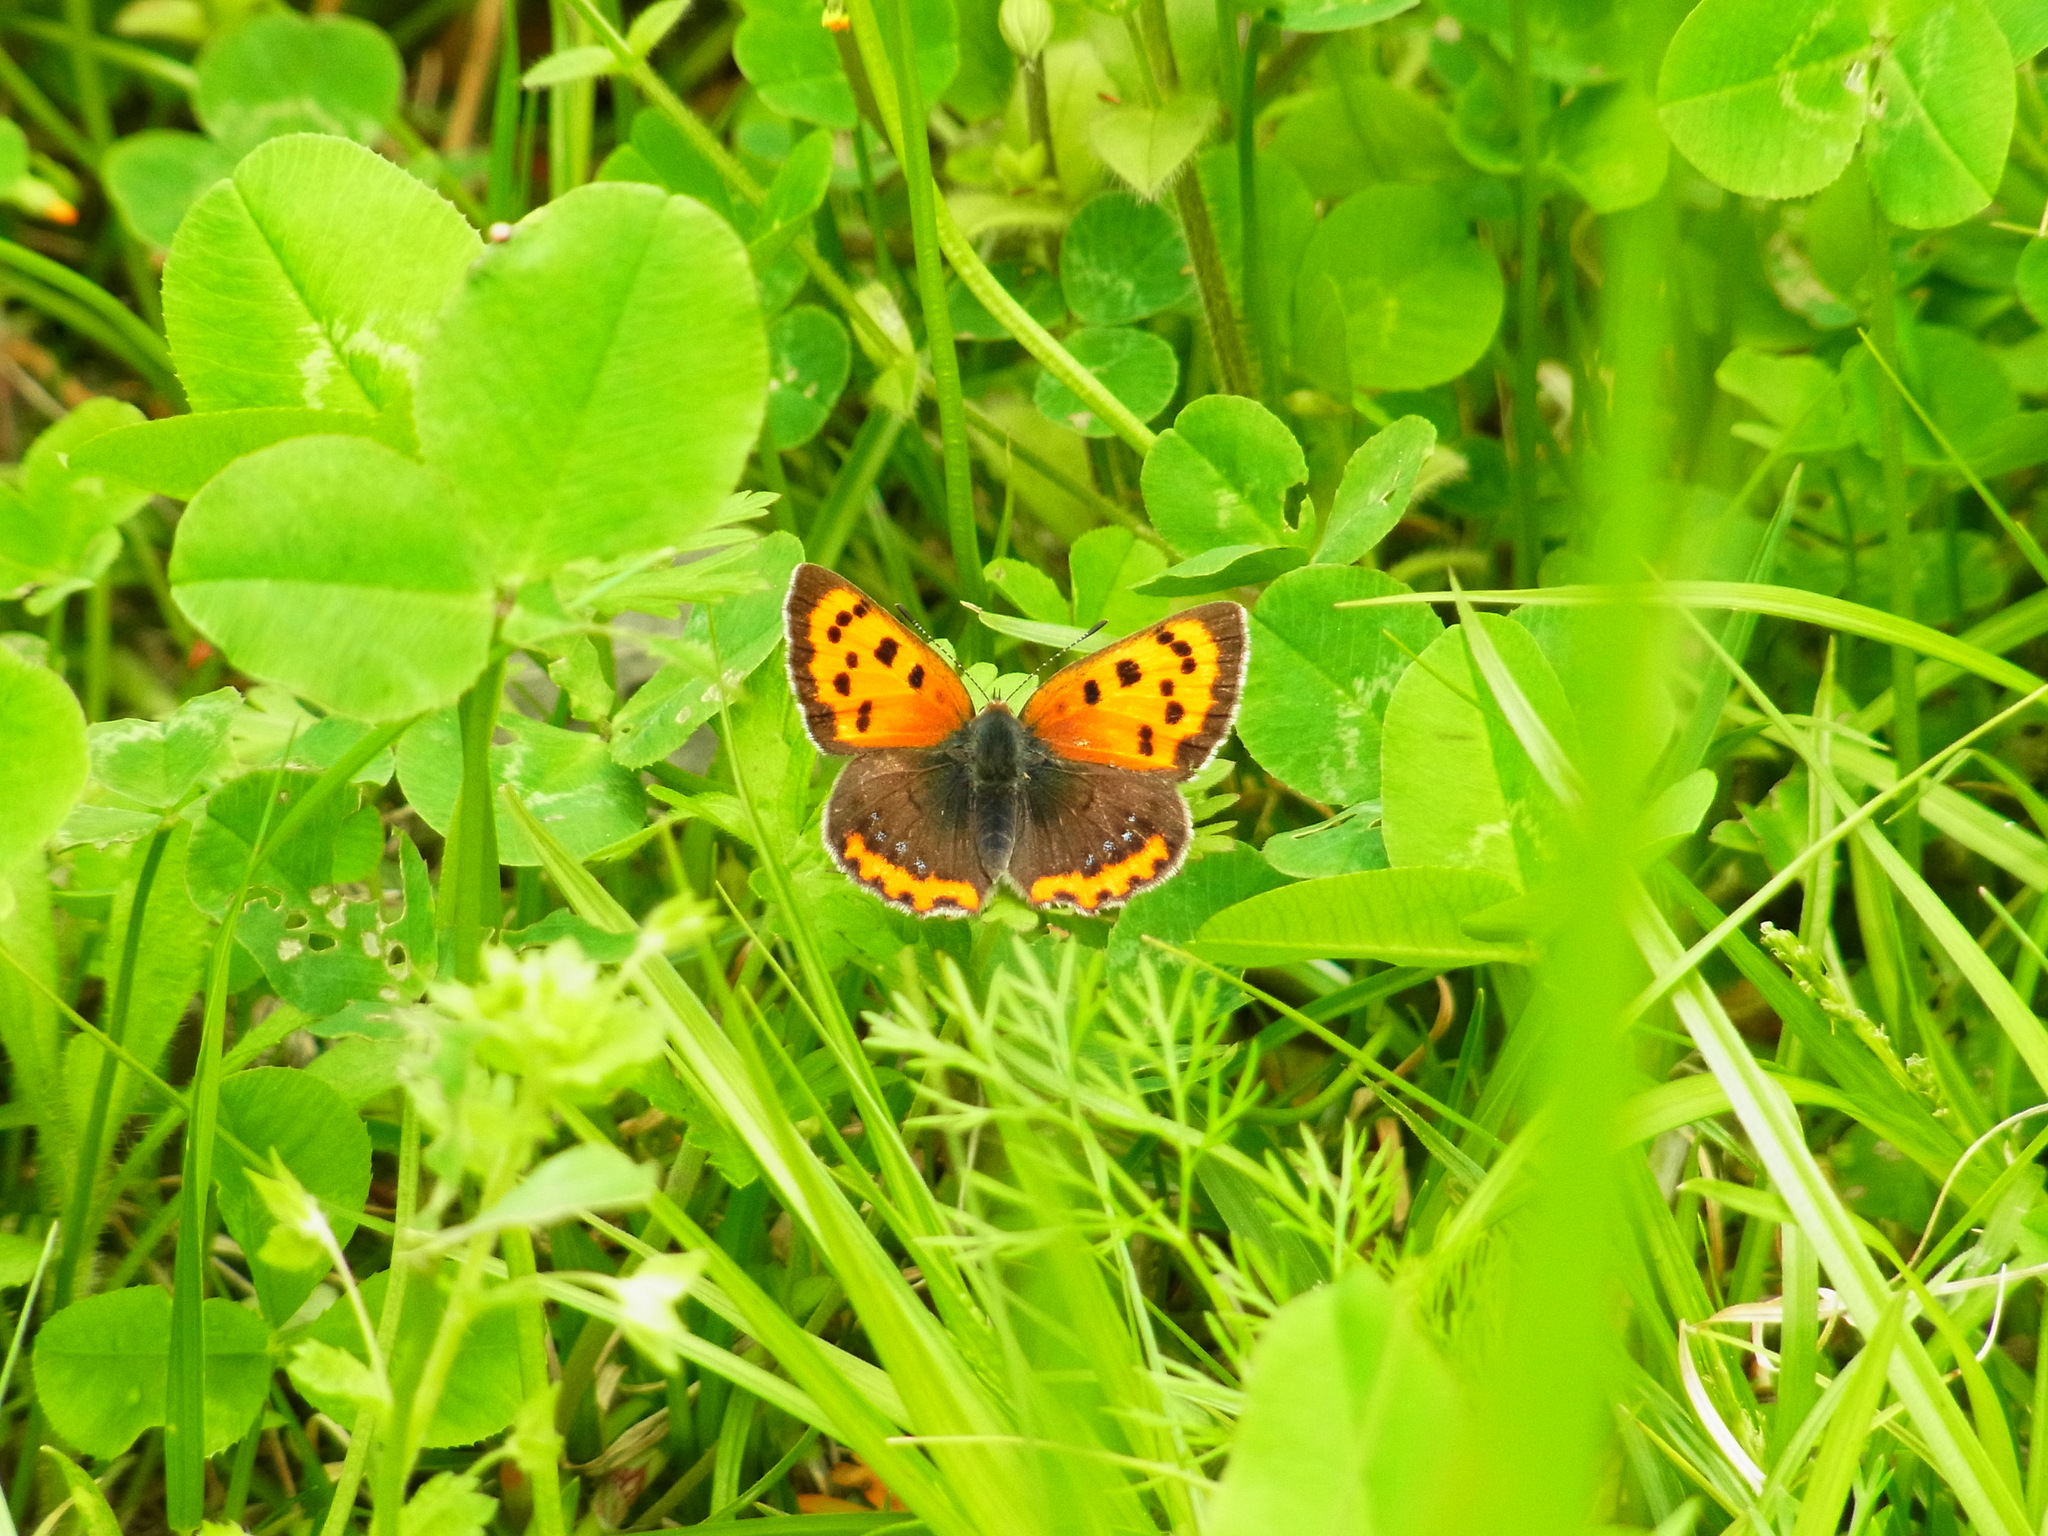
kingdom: Animalia
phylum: Arthropoda
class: Insecta
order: Lepidoptera
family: Lycaenidae
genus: Lycaena
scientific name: Lycaena phlaeas
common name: Small copper
